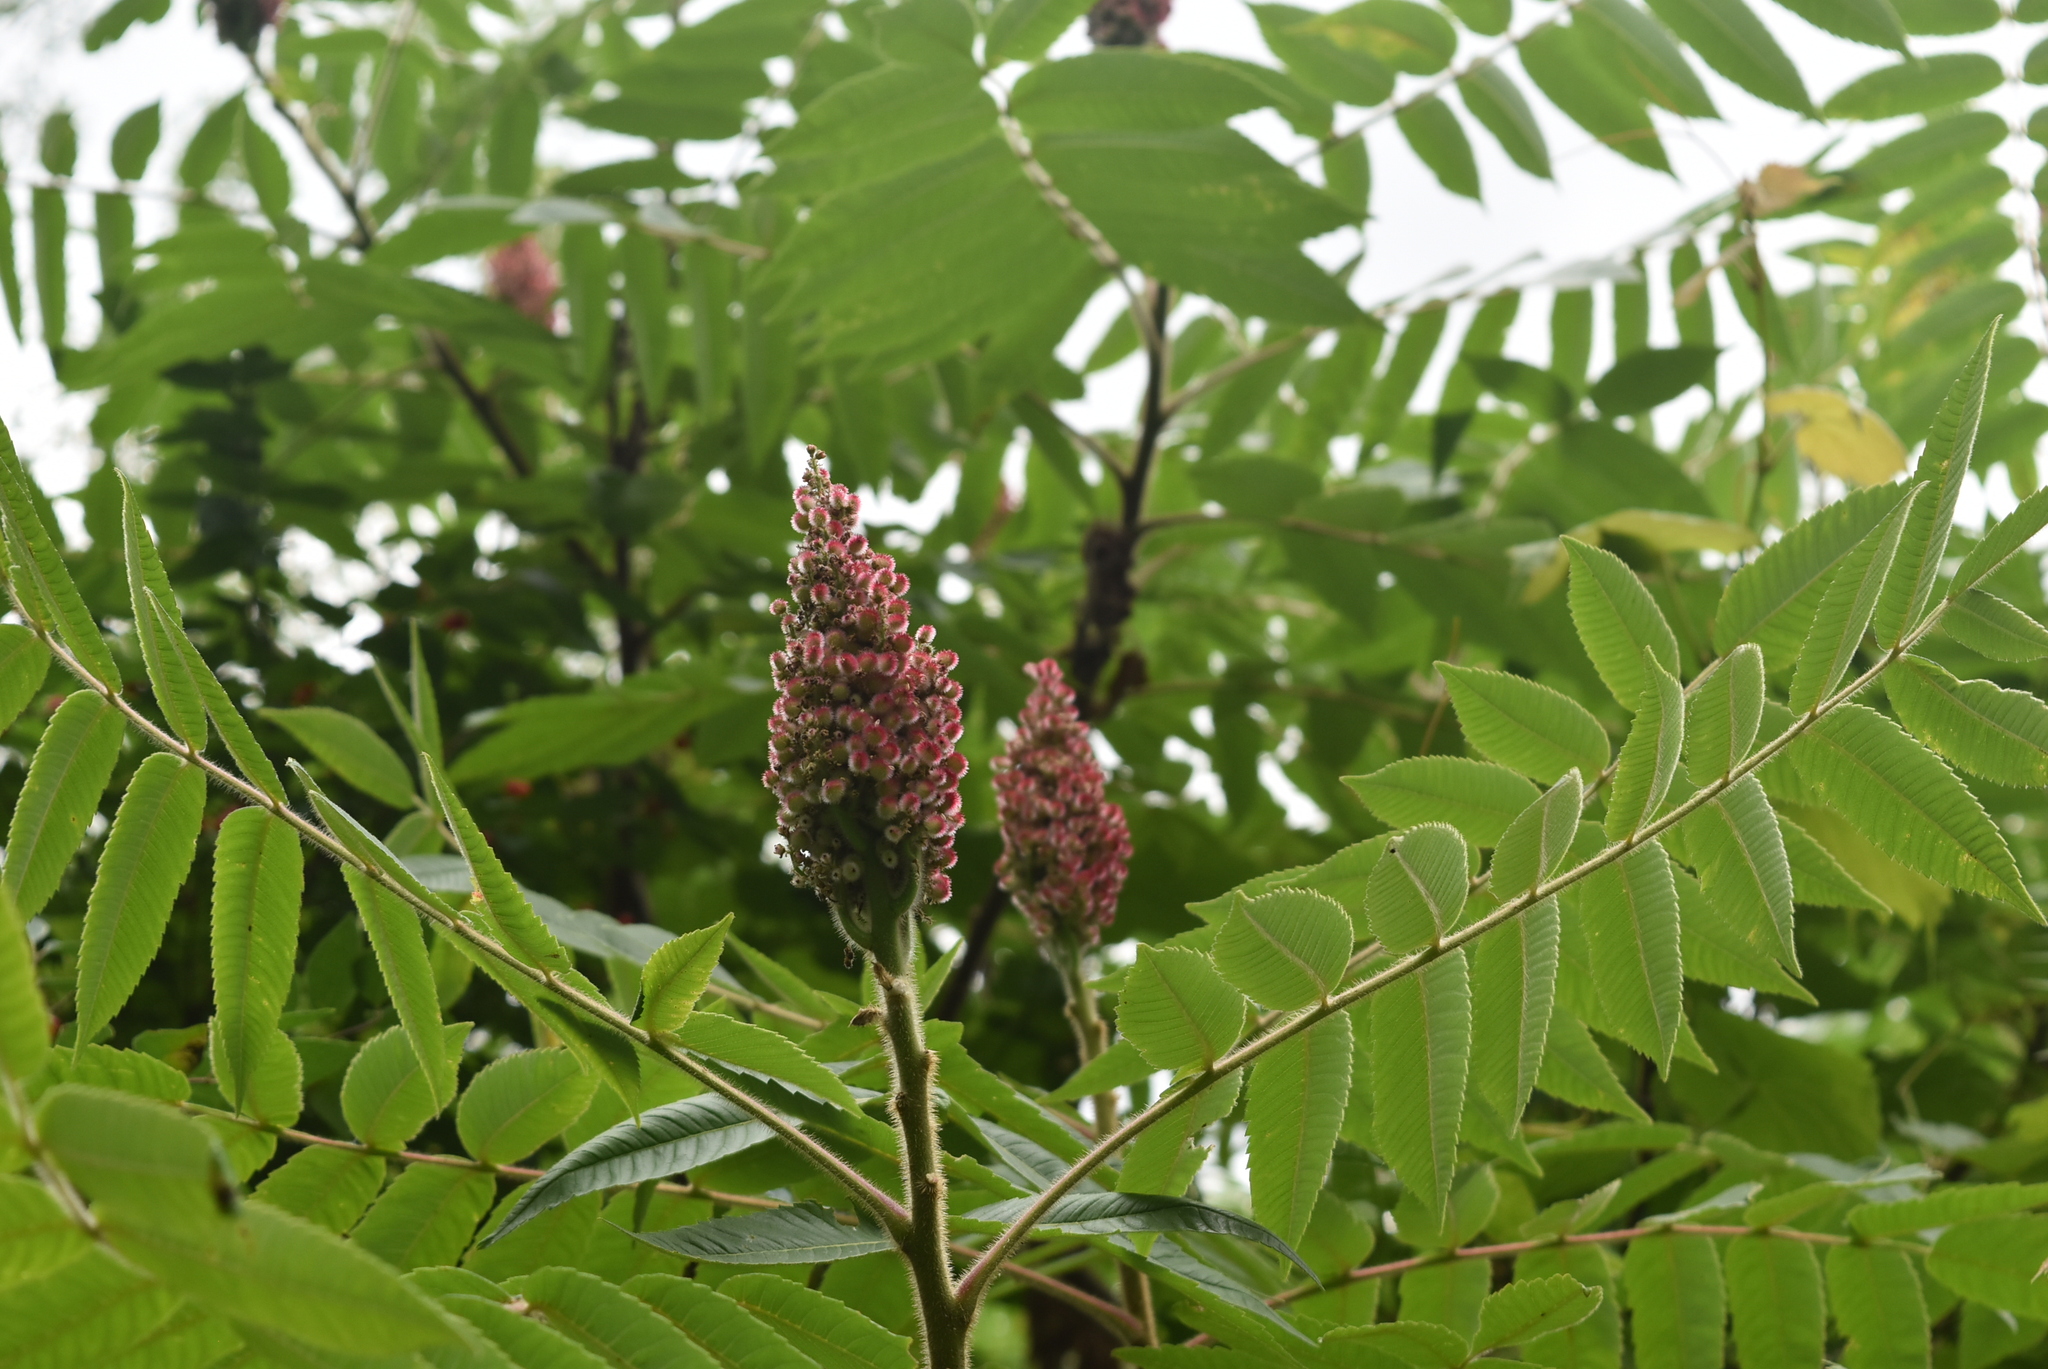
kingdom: Plantae
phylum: Tracheophyta
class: Magnoliopsida
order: Sapindales
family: Anacardiaceae
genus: Rhus
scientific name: Rhus typhina
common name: Staghorn sumac
